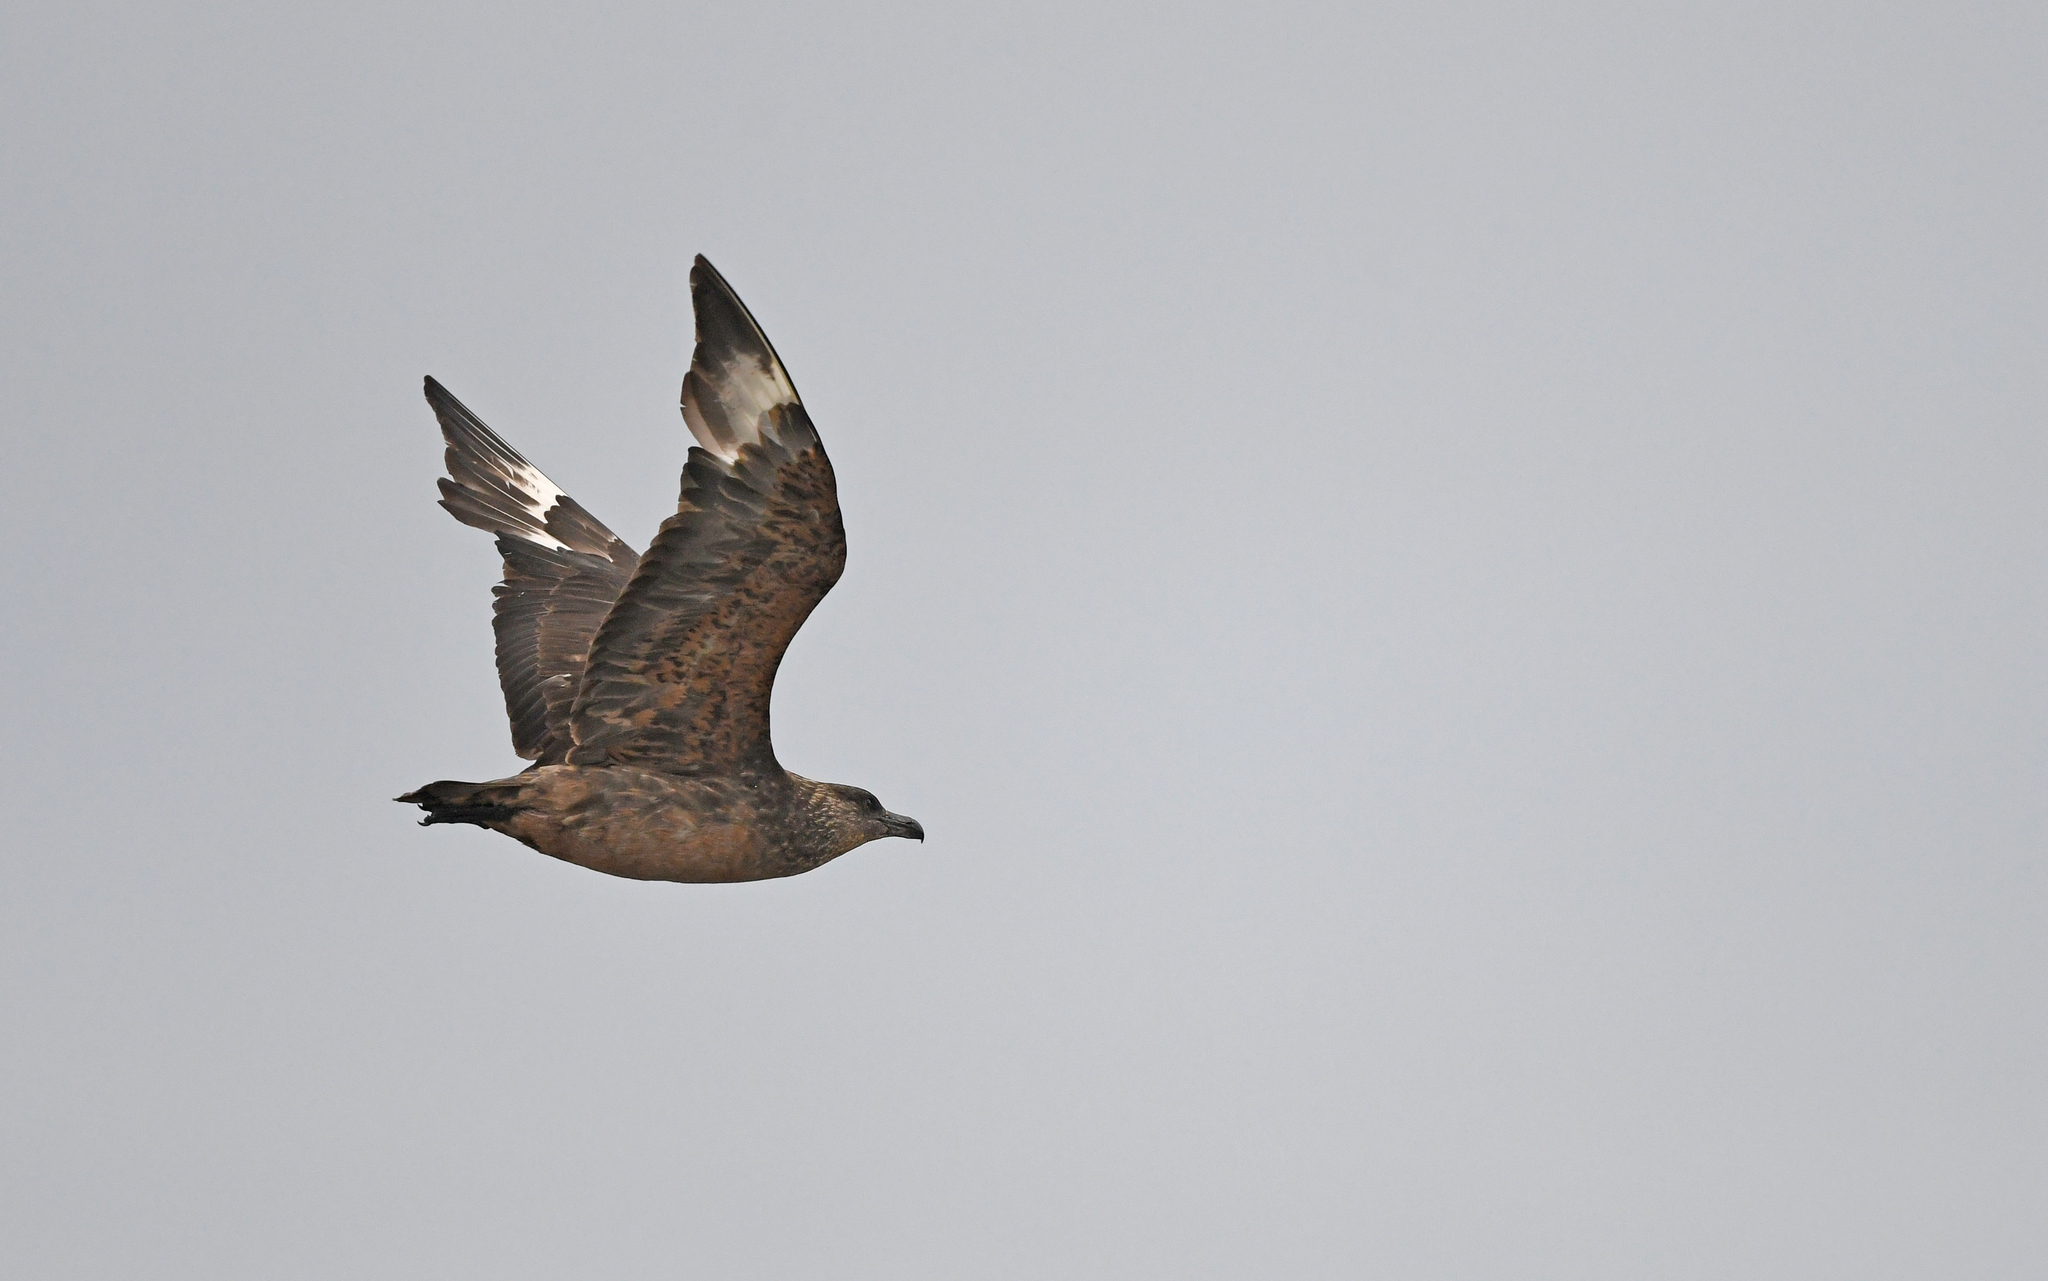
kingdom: Animalia
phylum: Chordata
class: Aves
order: Charadriiformes
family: Stercorariidae
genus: Stercorarius
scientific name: Stercorarius chilensis
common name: Chilean skua
